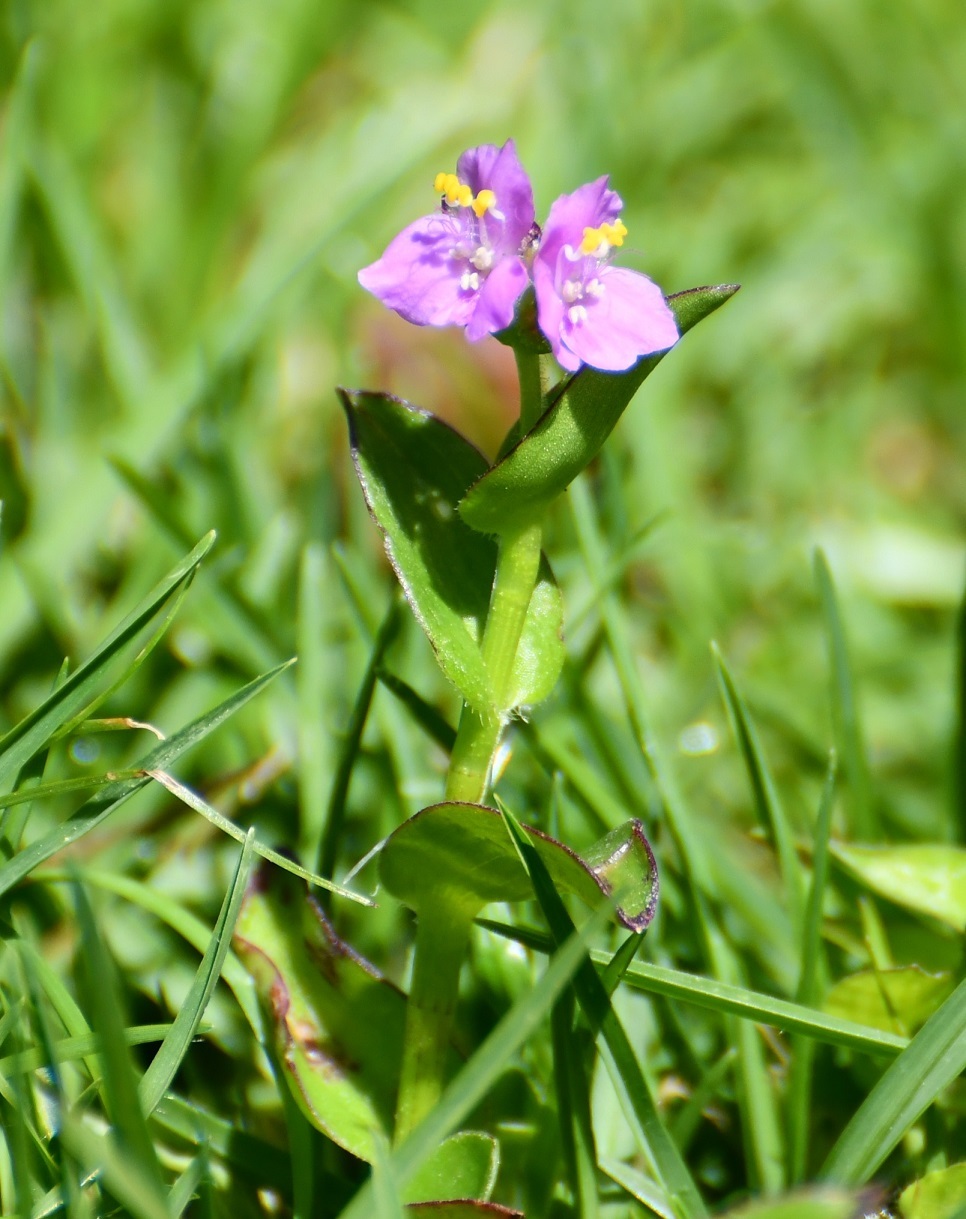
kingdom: Plantae
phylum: Tracheophyta
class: Liliopsida
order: Commelinales
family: Commelinaceae
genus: Callisia
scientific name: Callisia purpurascens
